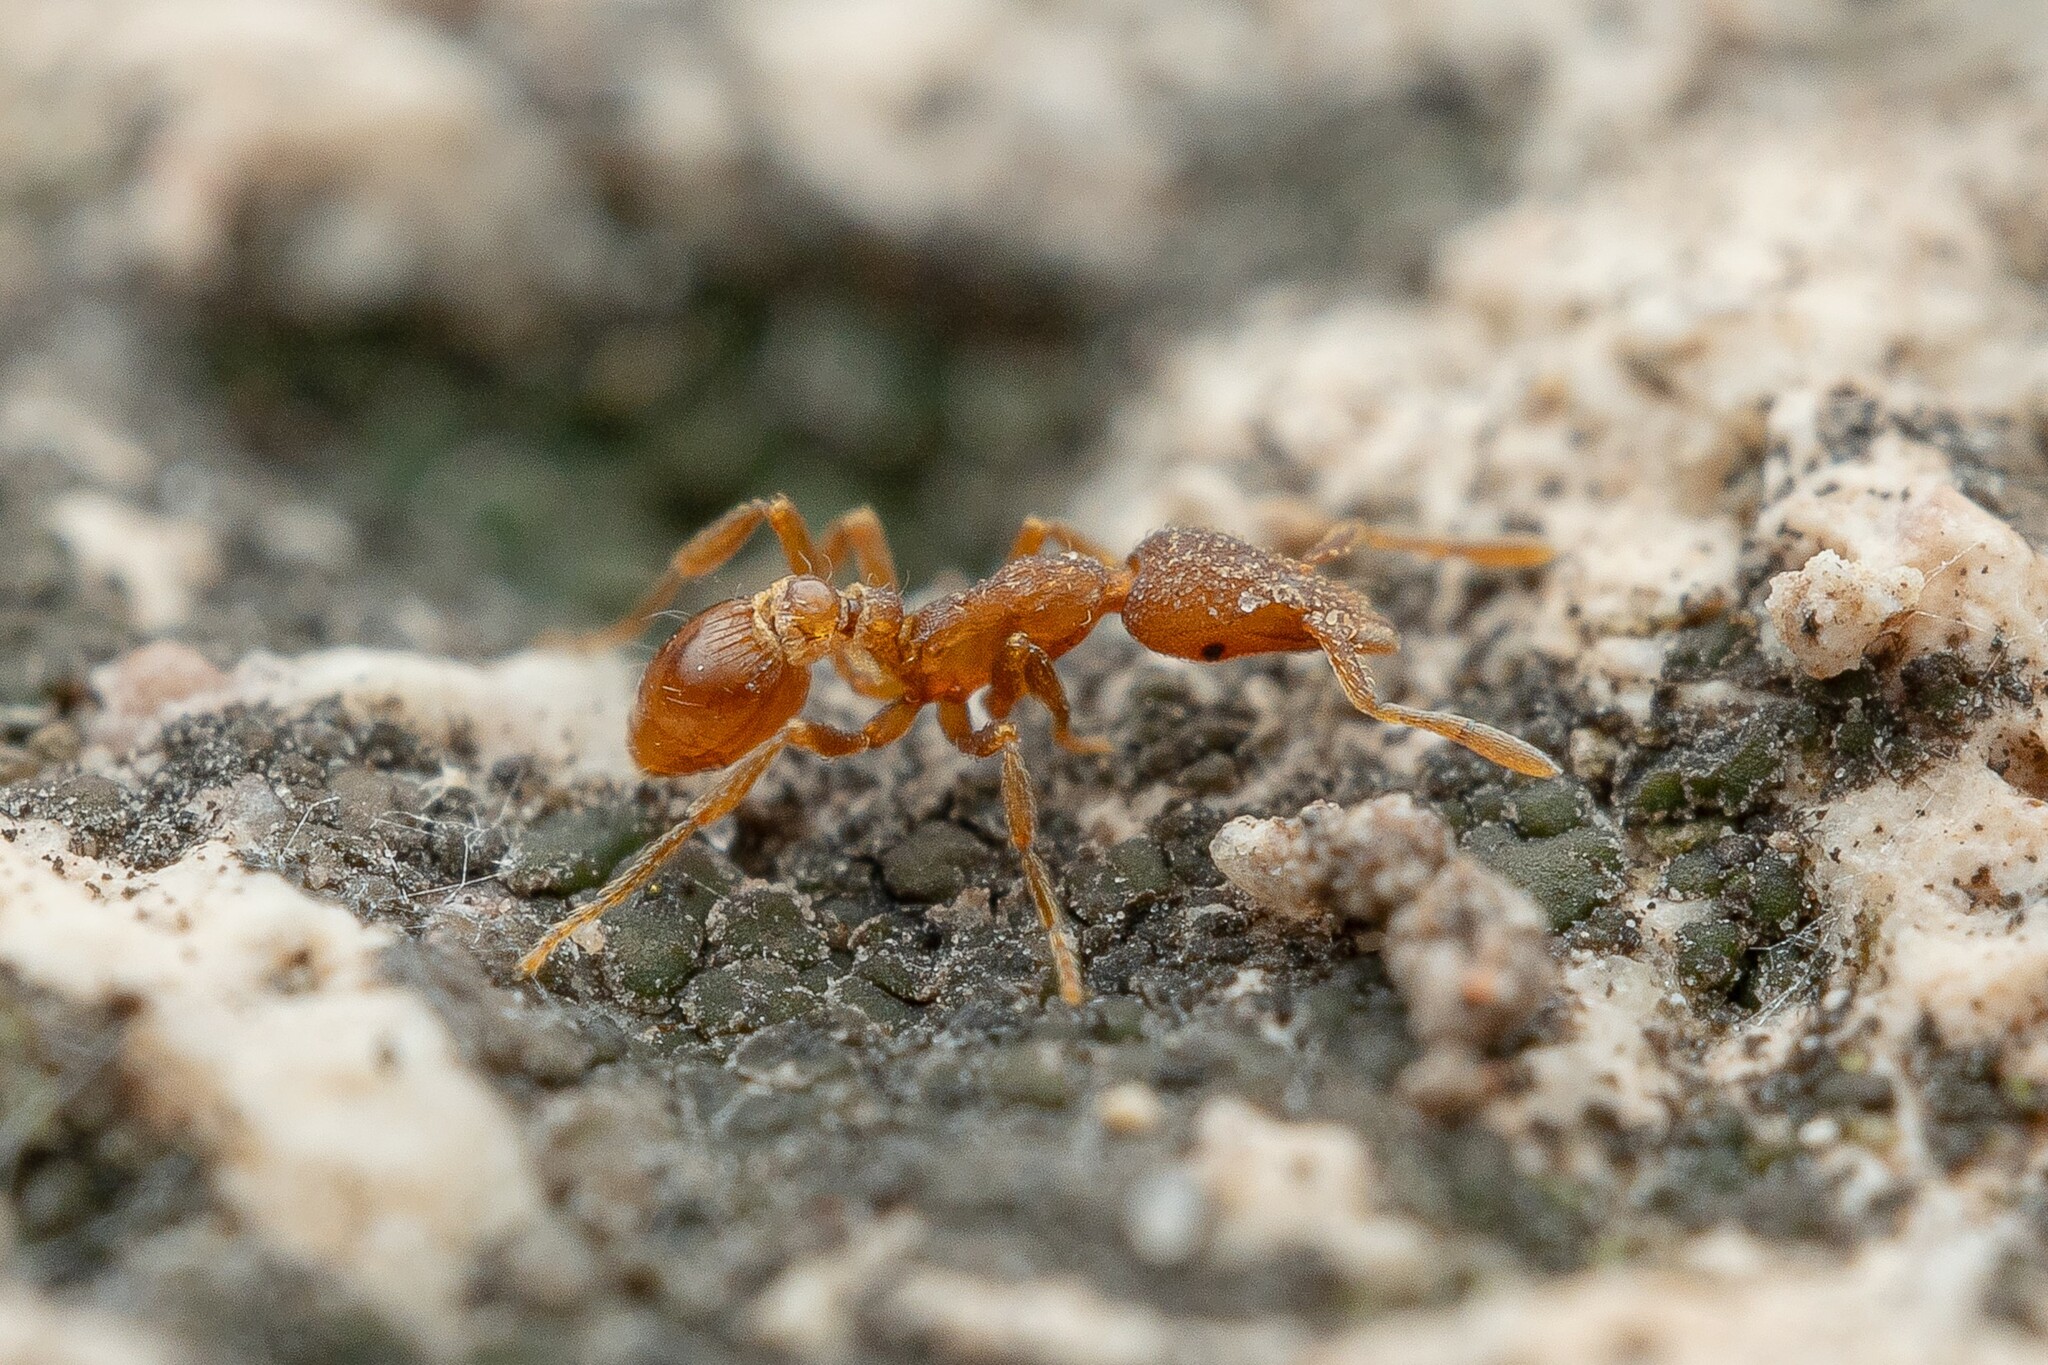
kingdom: Animalia
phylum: Arthropoda
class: Insecta
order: Hymenoptera
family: Formicidae
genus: Pyramica
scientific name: Pyramica arizonica
